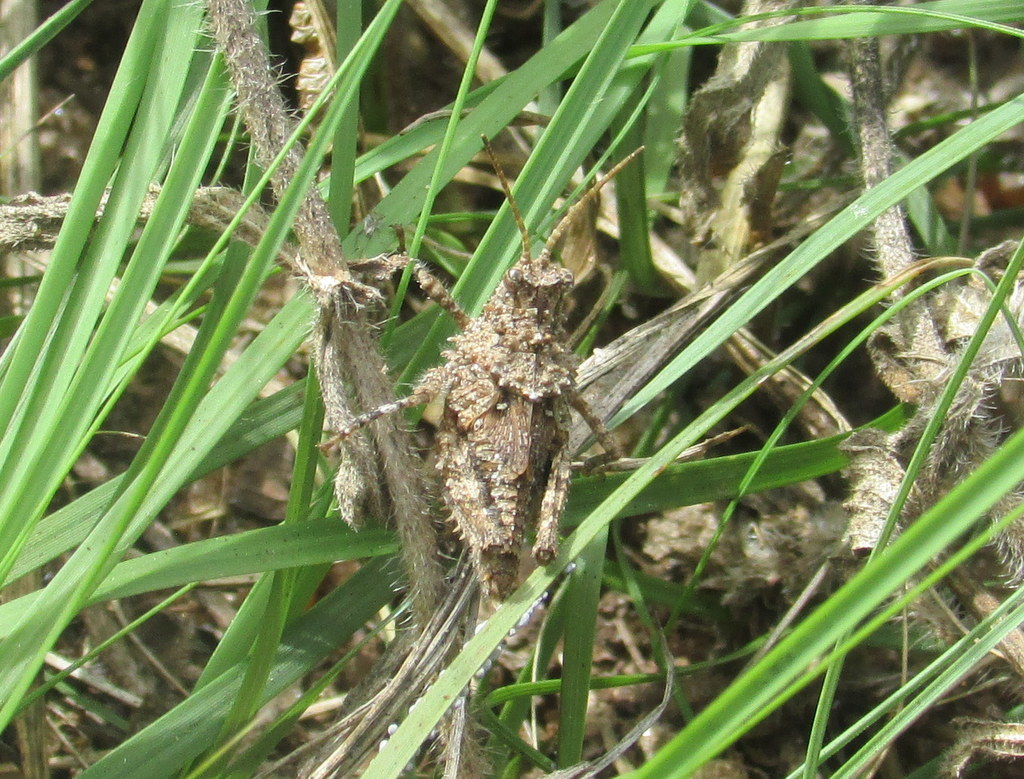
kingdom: Animalia
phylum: Arthropoda
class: Insecta
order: Orthoptera
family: Ommexechidae
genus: Ommexecha
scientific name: Ommexecha virens
